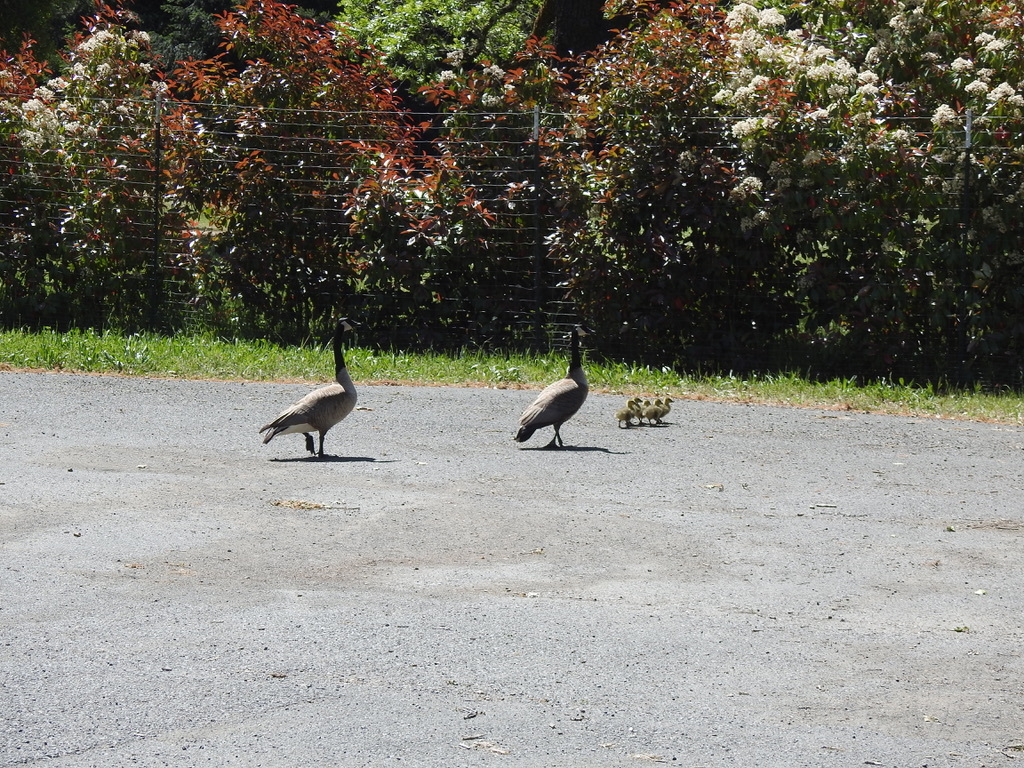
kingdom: Animalia
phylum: Chordata
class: Aves
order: Anseriformes
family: Anatidae
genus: Branta
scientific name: Branta canadensis
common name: Canada goose
